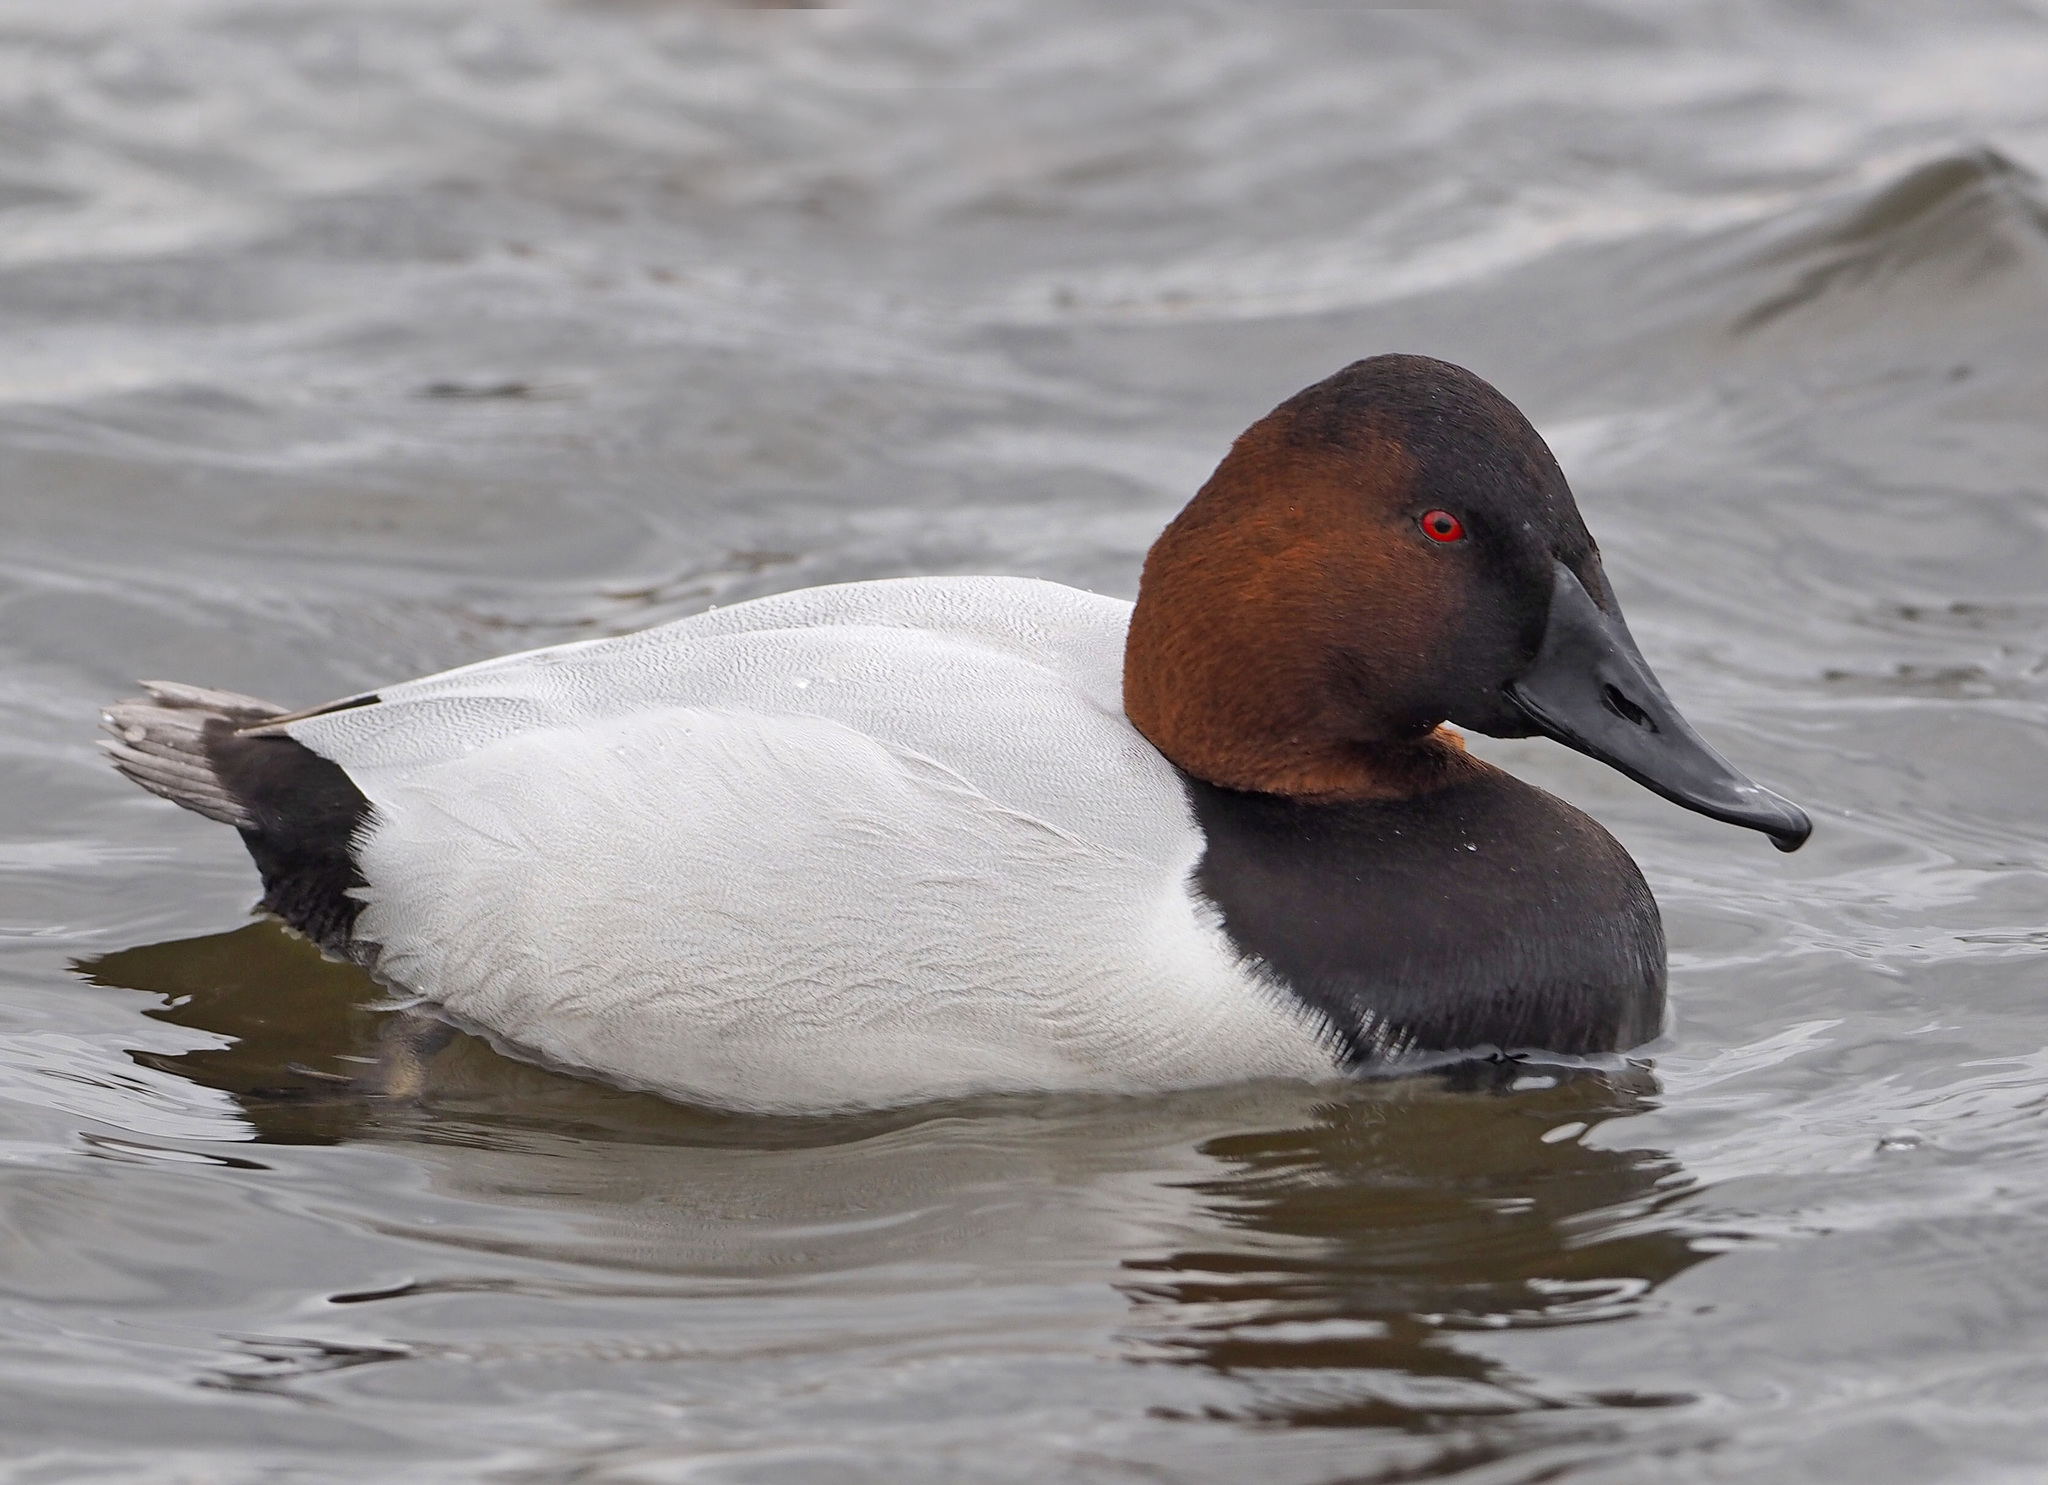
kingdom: Animalia
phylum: Chordata
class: Aves
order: Anseriformes
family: Anatidae
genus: Aythya
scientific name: Aythya valisineria
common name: Canvasback
